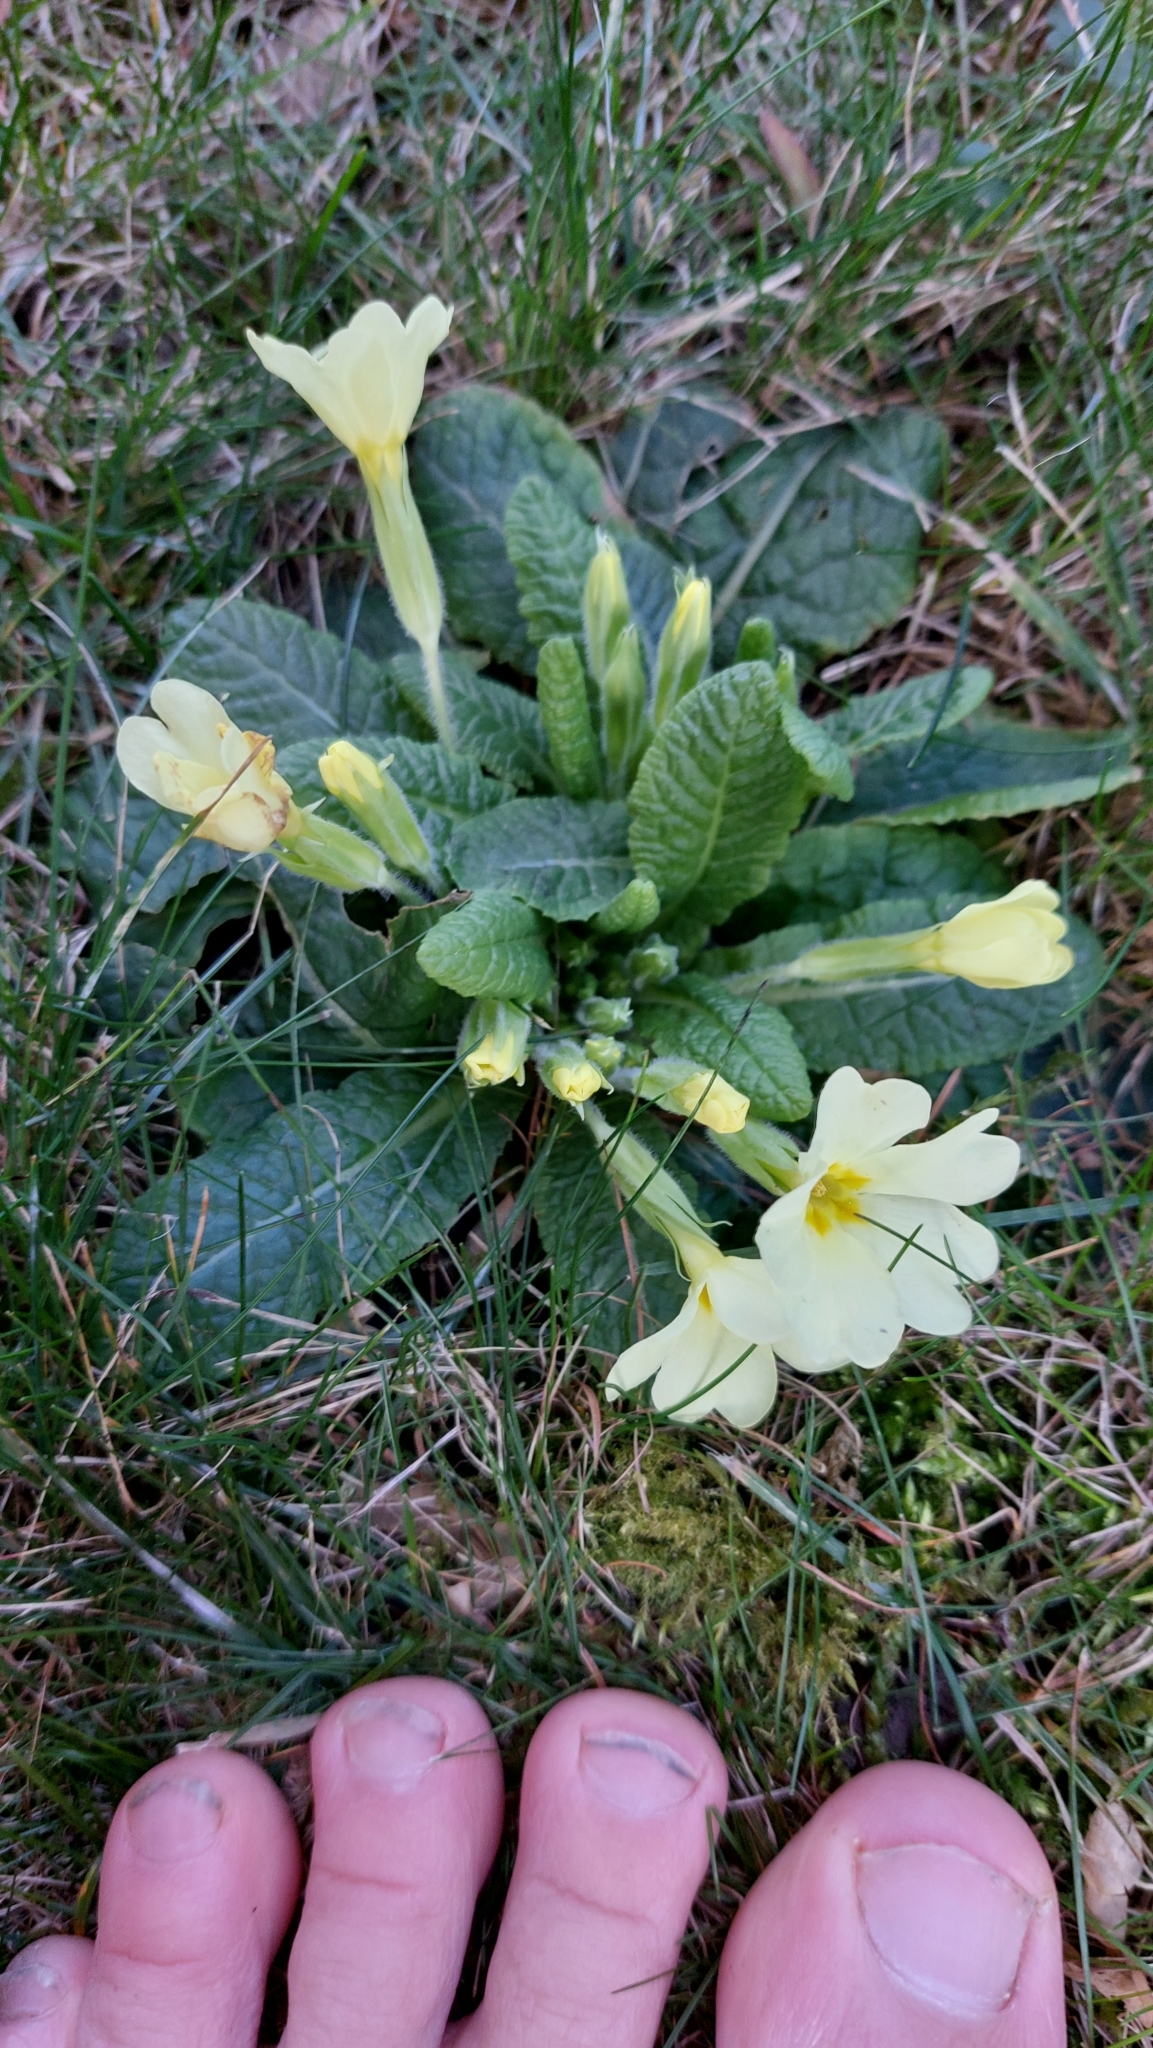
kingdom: Plantae
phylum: Tracheophyta
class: Magnoliopsida
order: Ericales
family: Primulaceae
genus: Primula
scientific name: Primula vulgaris
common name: Primrose
